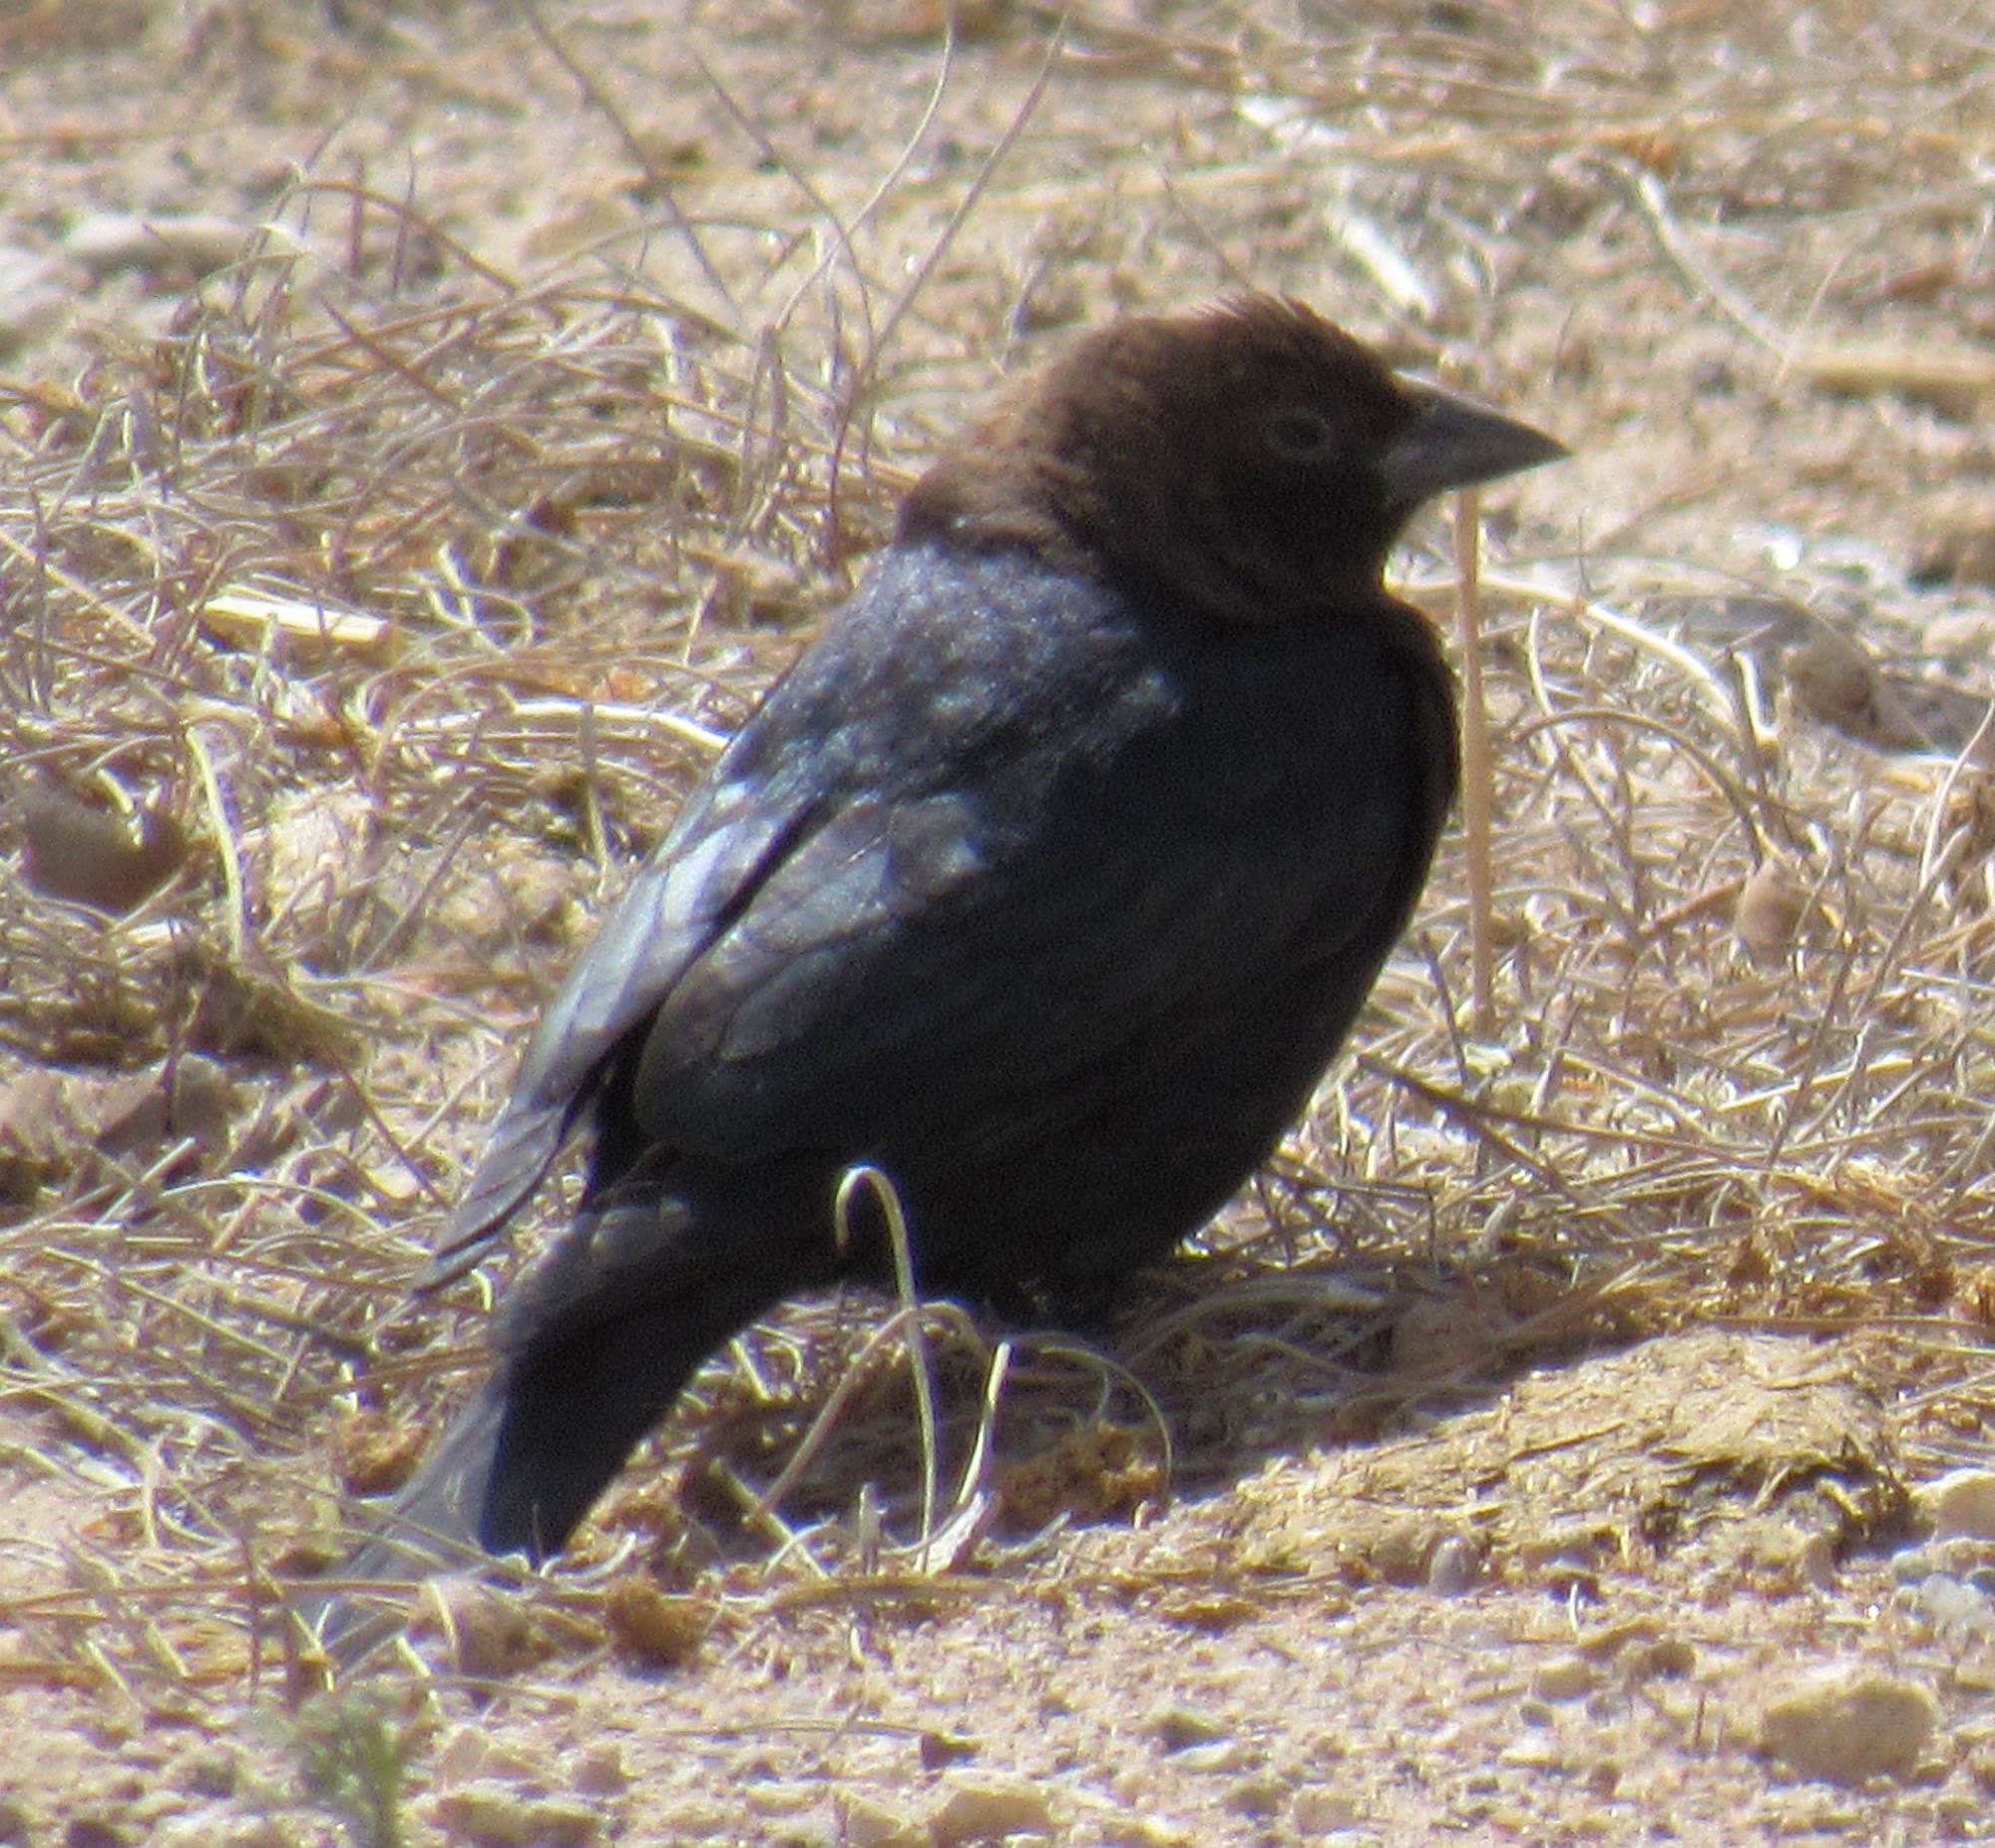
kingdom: Animalia
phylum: Chordata
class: Aves
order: Passeriformes
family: Icteridae
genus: Molothrus
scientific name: Molothrus ater
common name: Brown-headed cowbird
